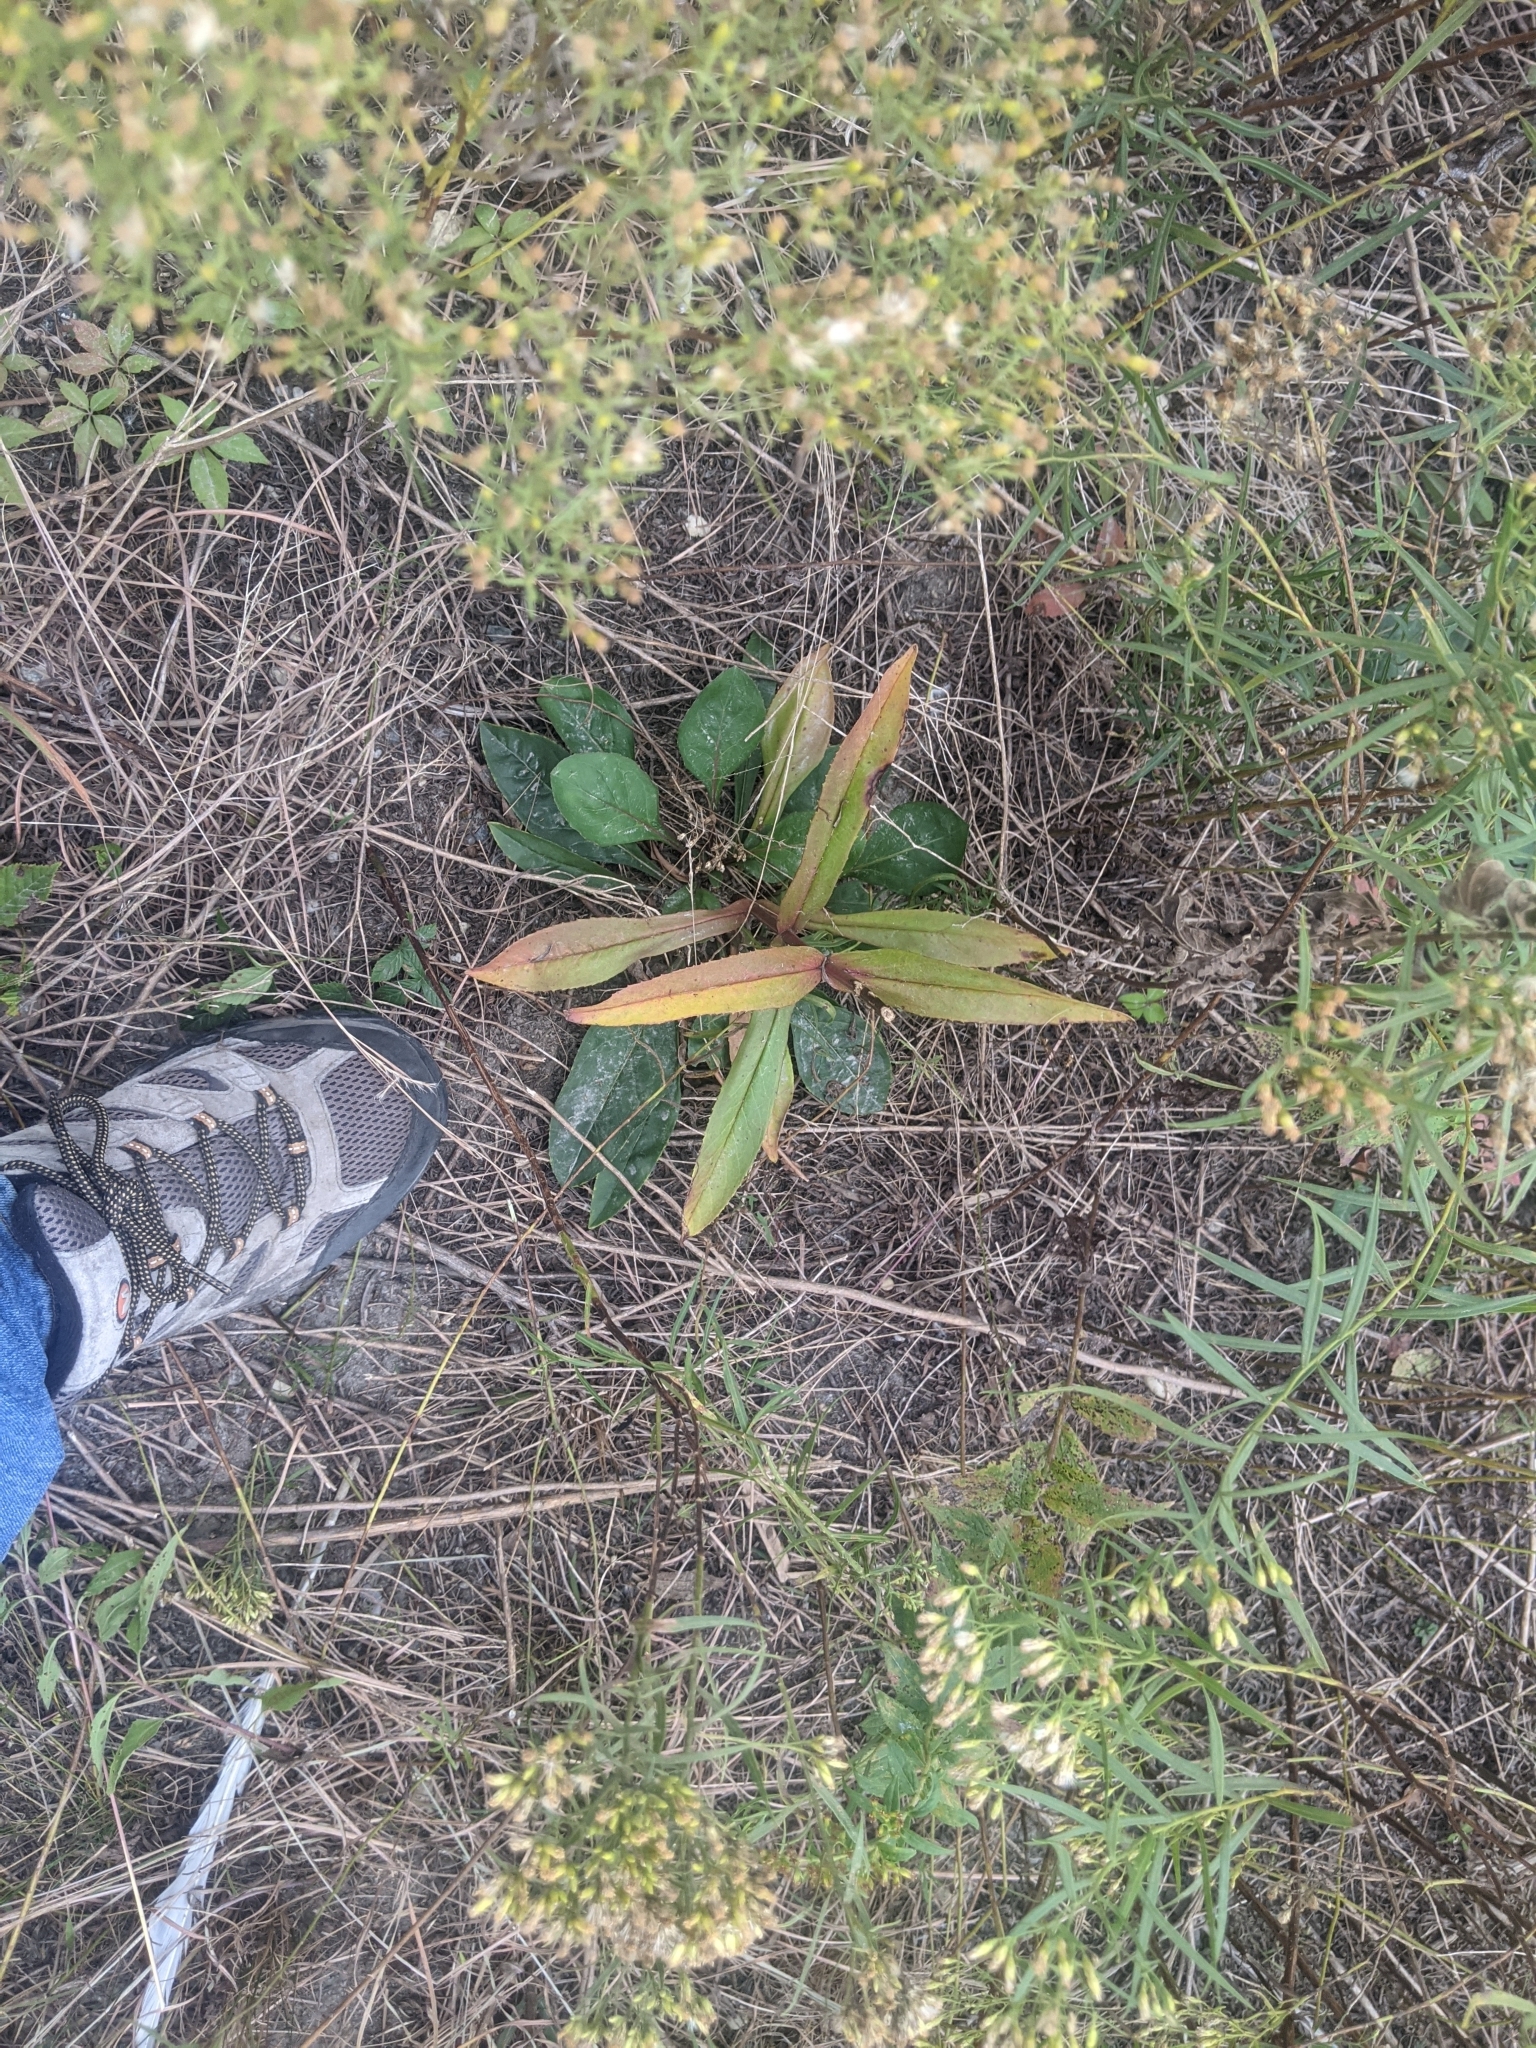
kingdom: Plantae
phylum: Tracheophyta
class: Magnoliopsida
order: Lamiales
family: Plantaginaceae
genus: Penstemon
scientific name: Penstemon digitalis
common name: Foxglove beardtongue
